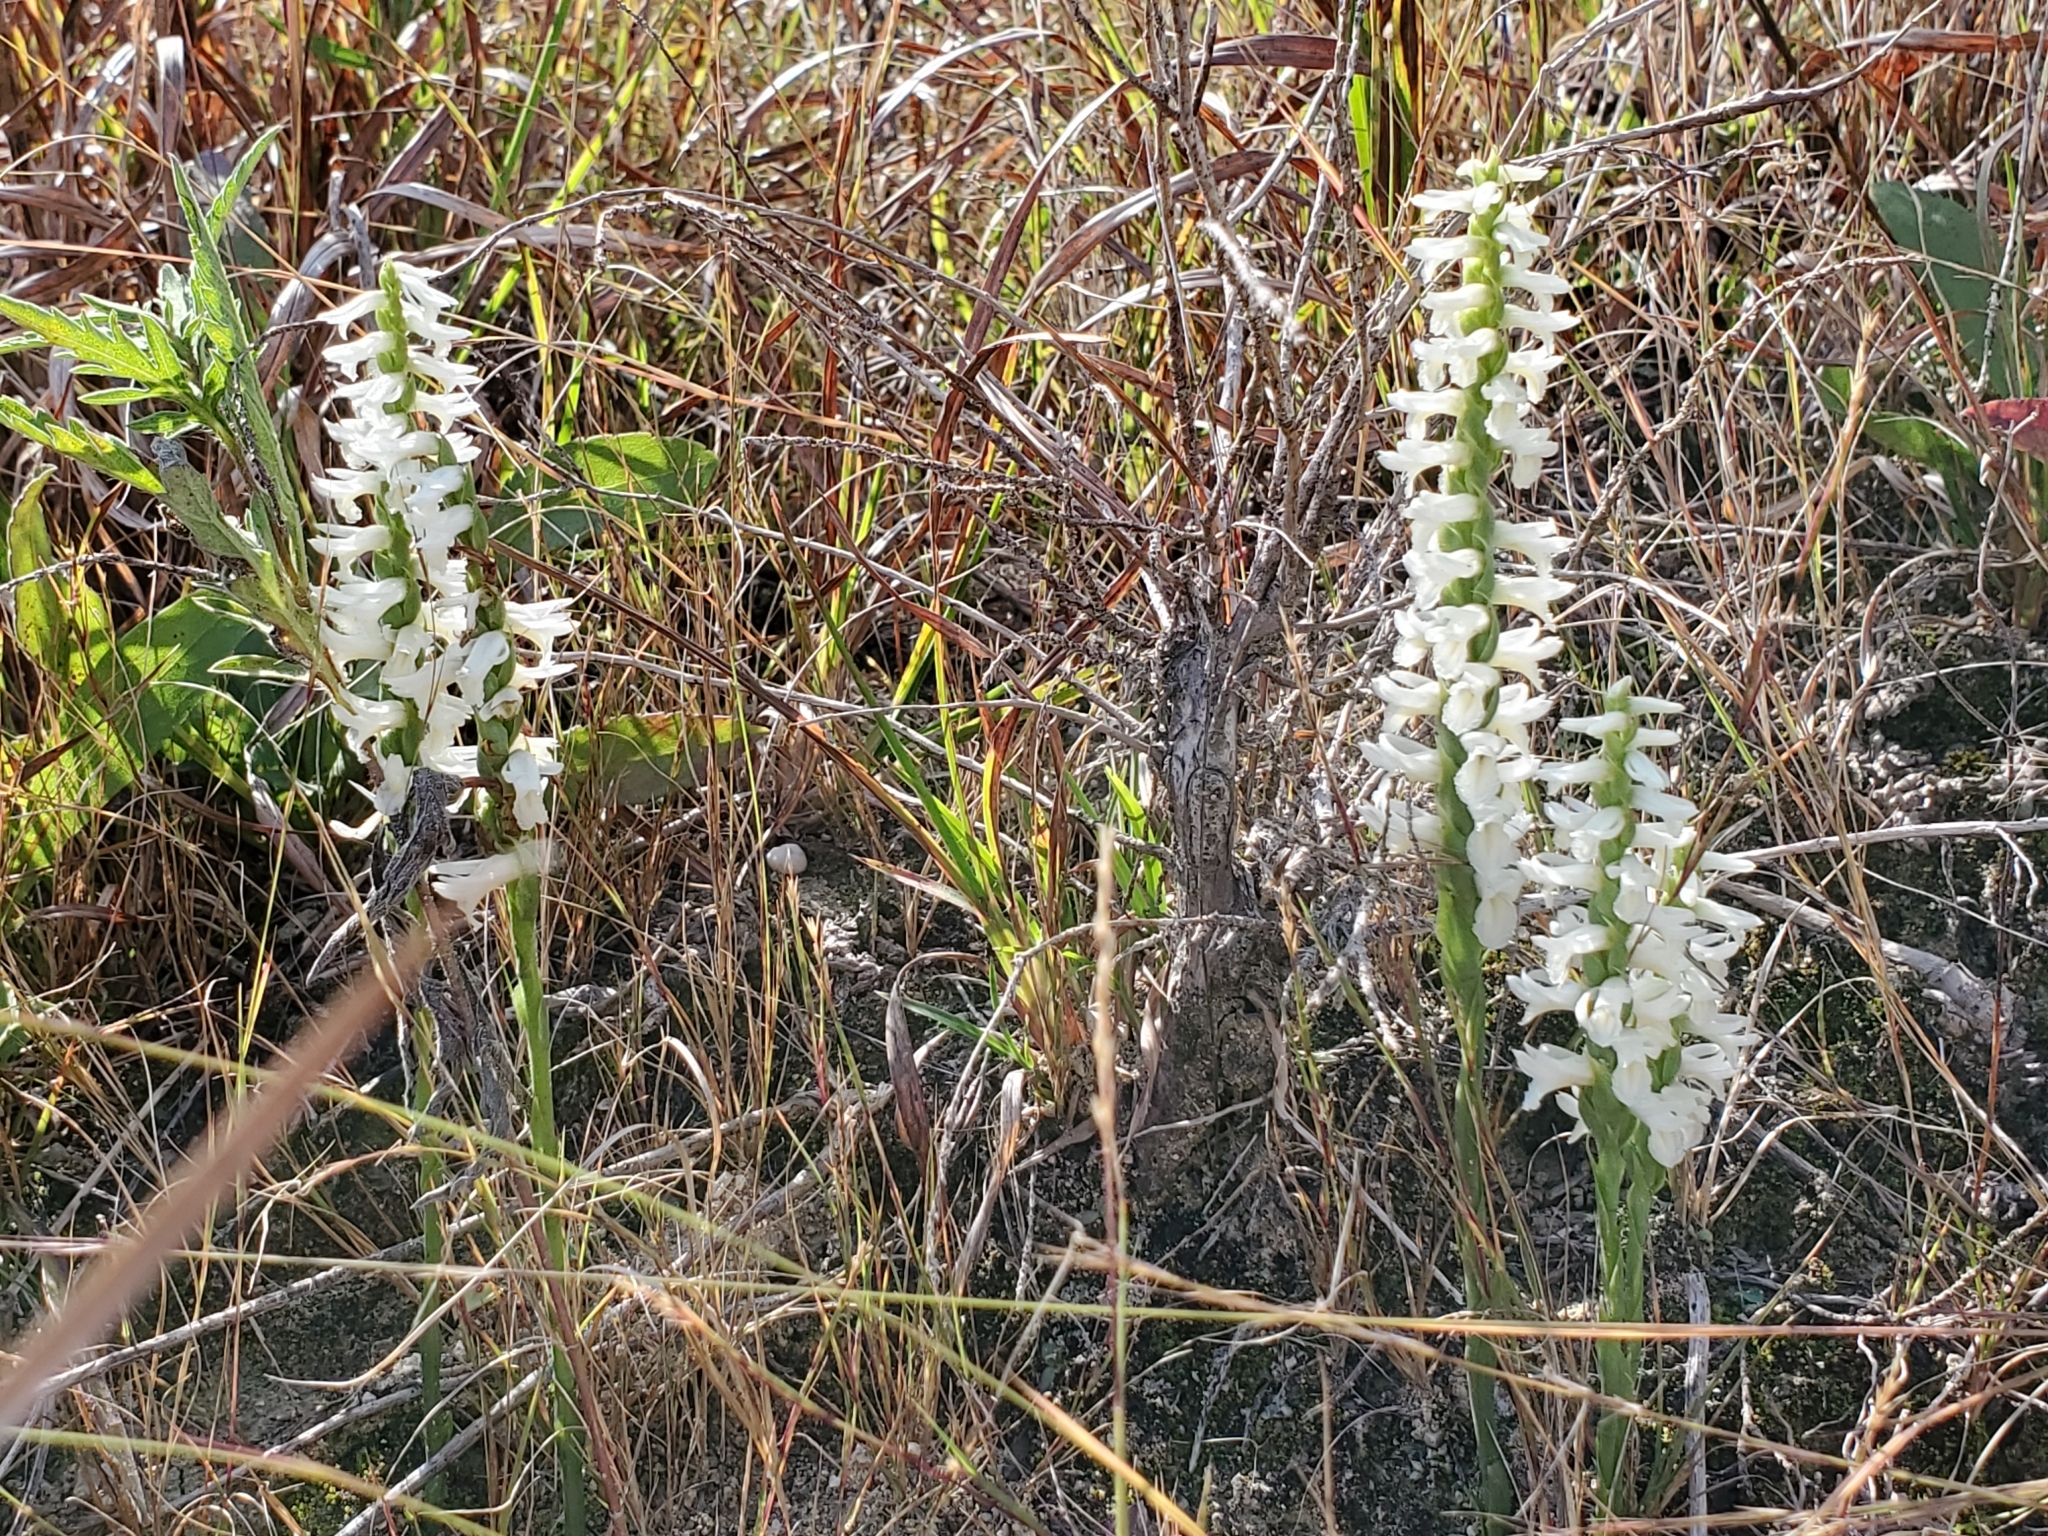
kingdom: Plantae
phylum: Tracheophyta
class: Liliopsida
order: Asparagales
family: Orchidaceae
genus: Spiranthes
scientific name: Spiranthes magnicamporum
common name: Great plains ladies'-tresses
